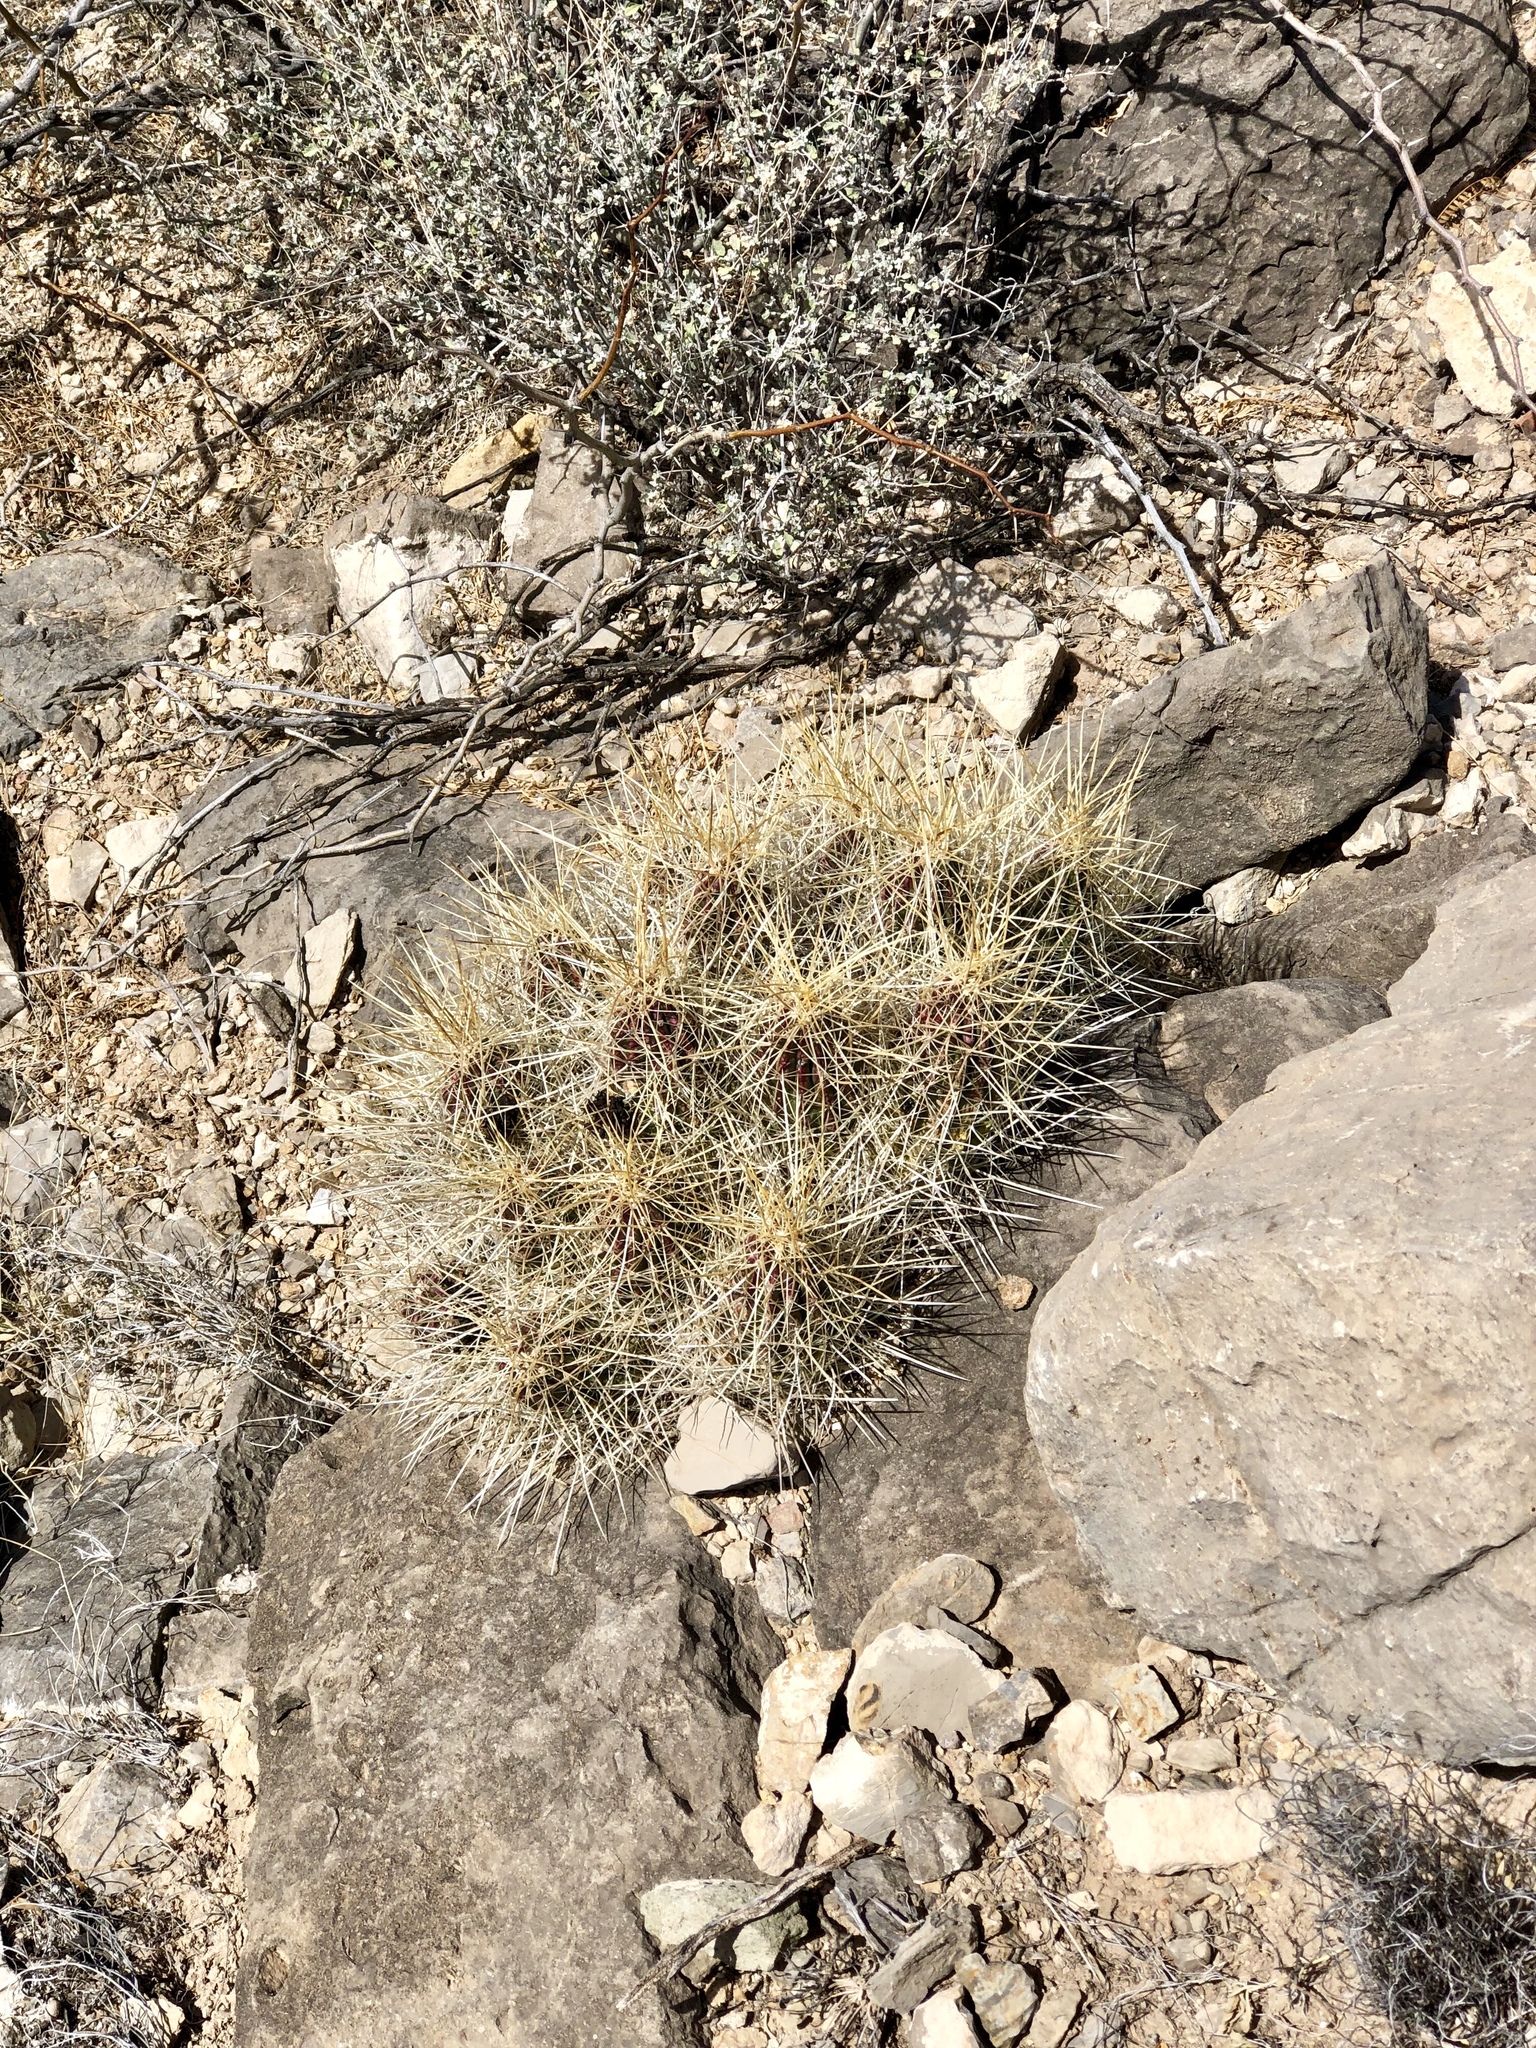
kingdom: Plantae
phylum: Tracheophyta
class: Magnoliopsida
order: Caryophyllales
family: Cactaceae
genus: Echinocereus
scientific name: Echinocereus stramineus
